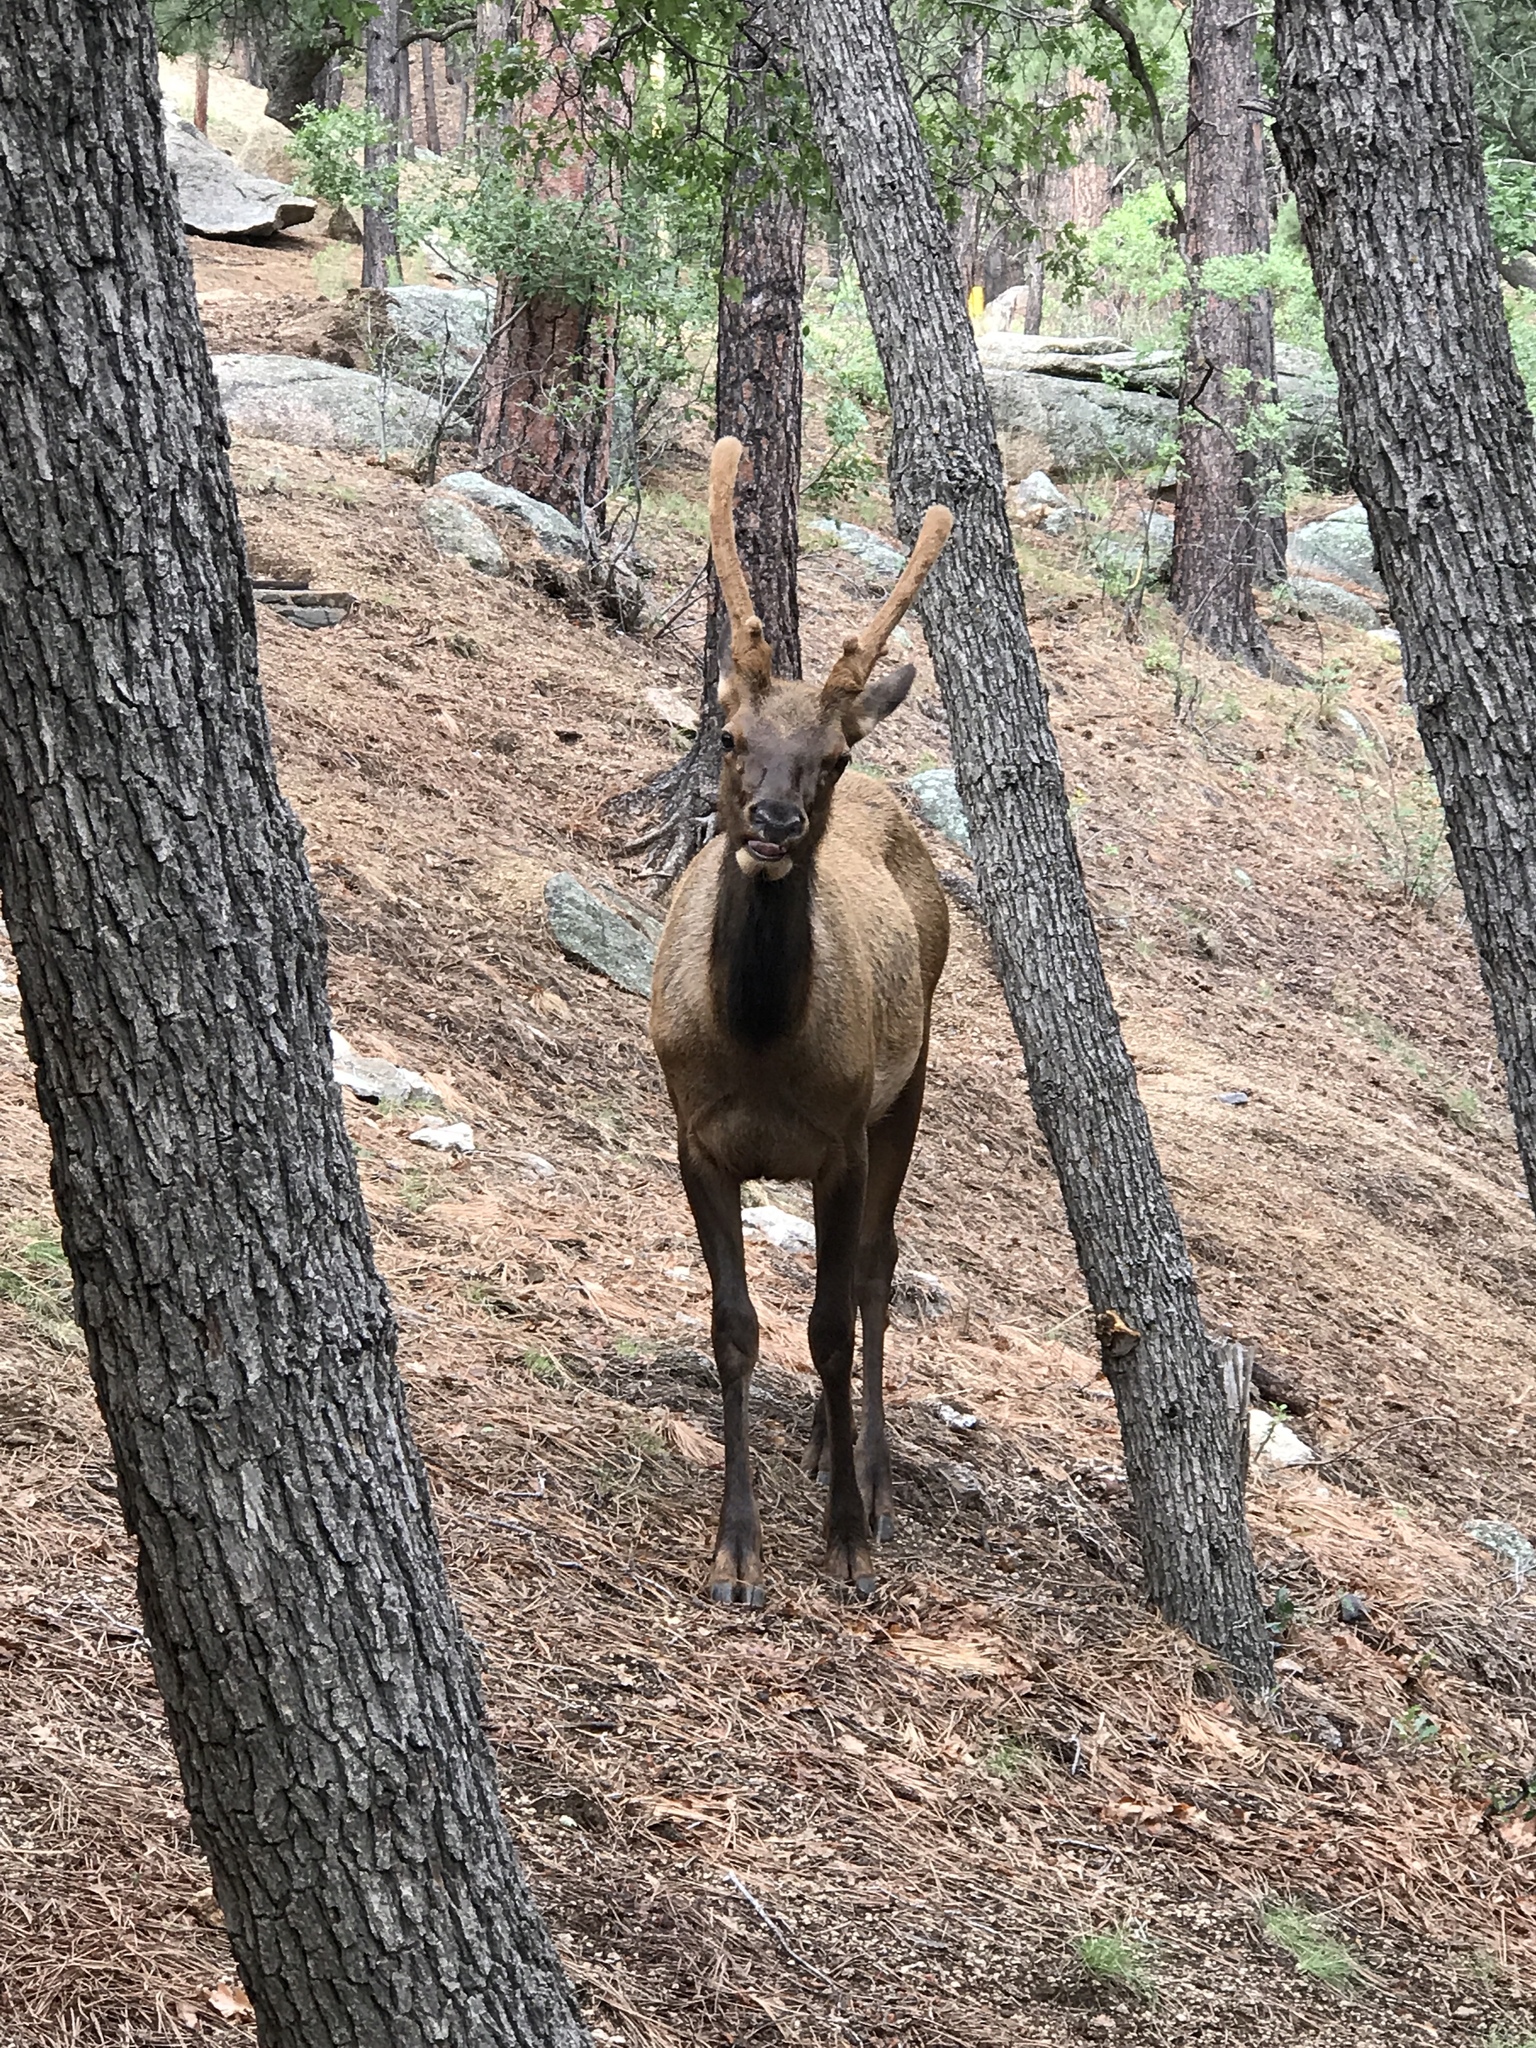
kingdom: Animalia
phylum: Chordata
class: Mammalia
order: Artiodactyla
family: Cervidae
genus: Cervus
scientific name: Cervus elaphus
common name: Red deer
